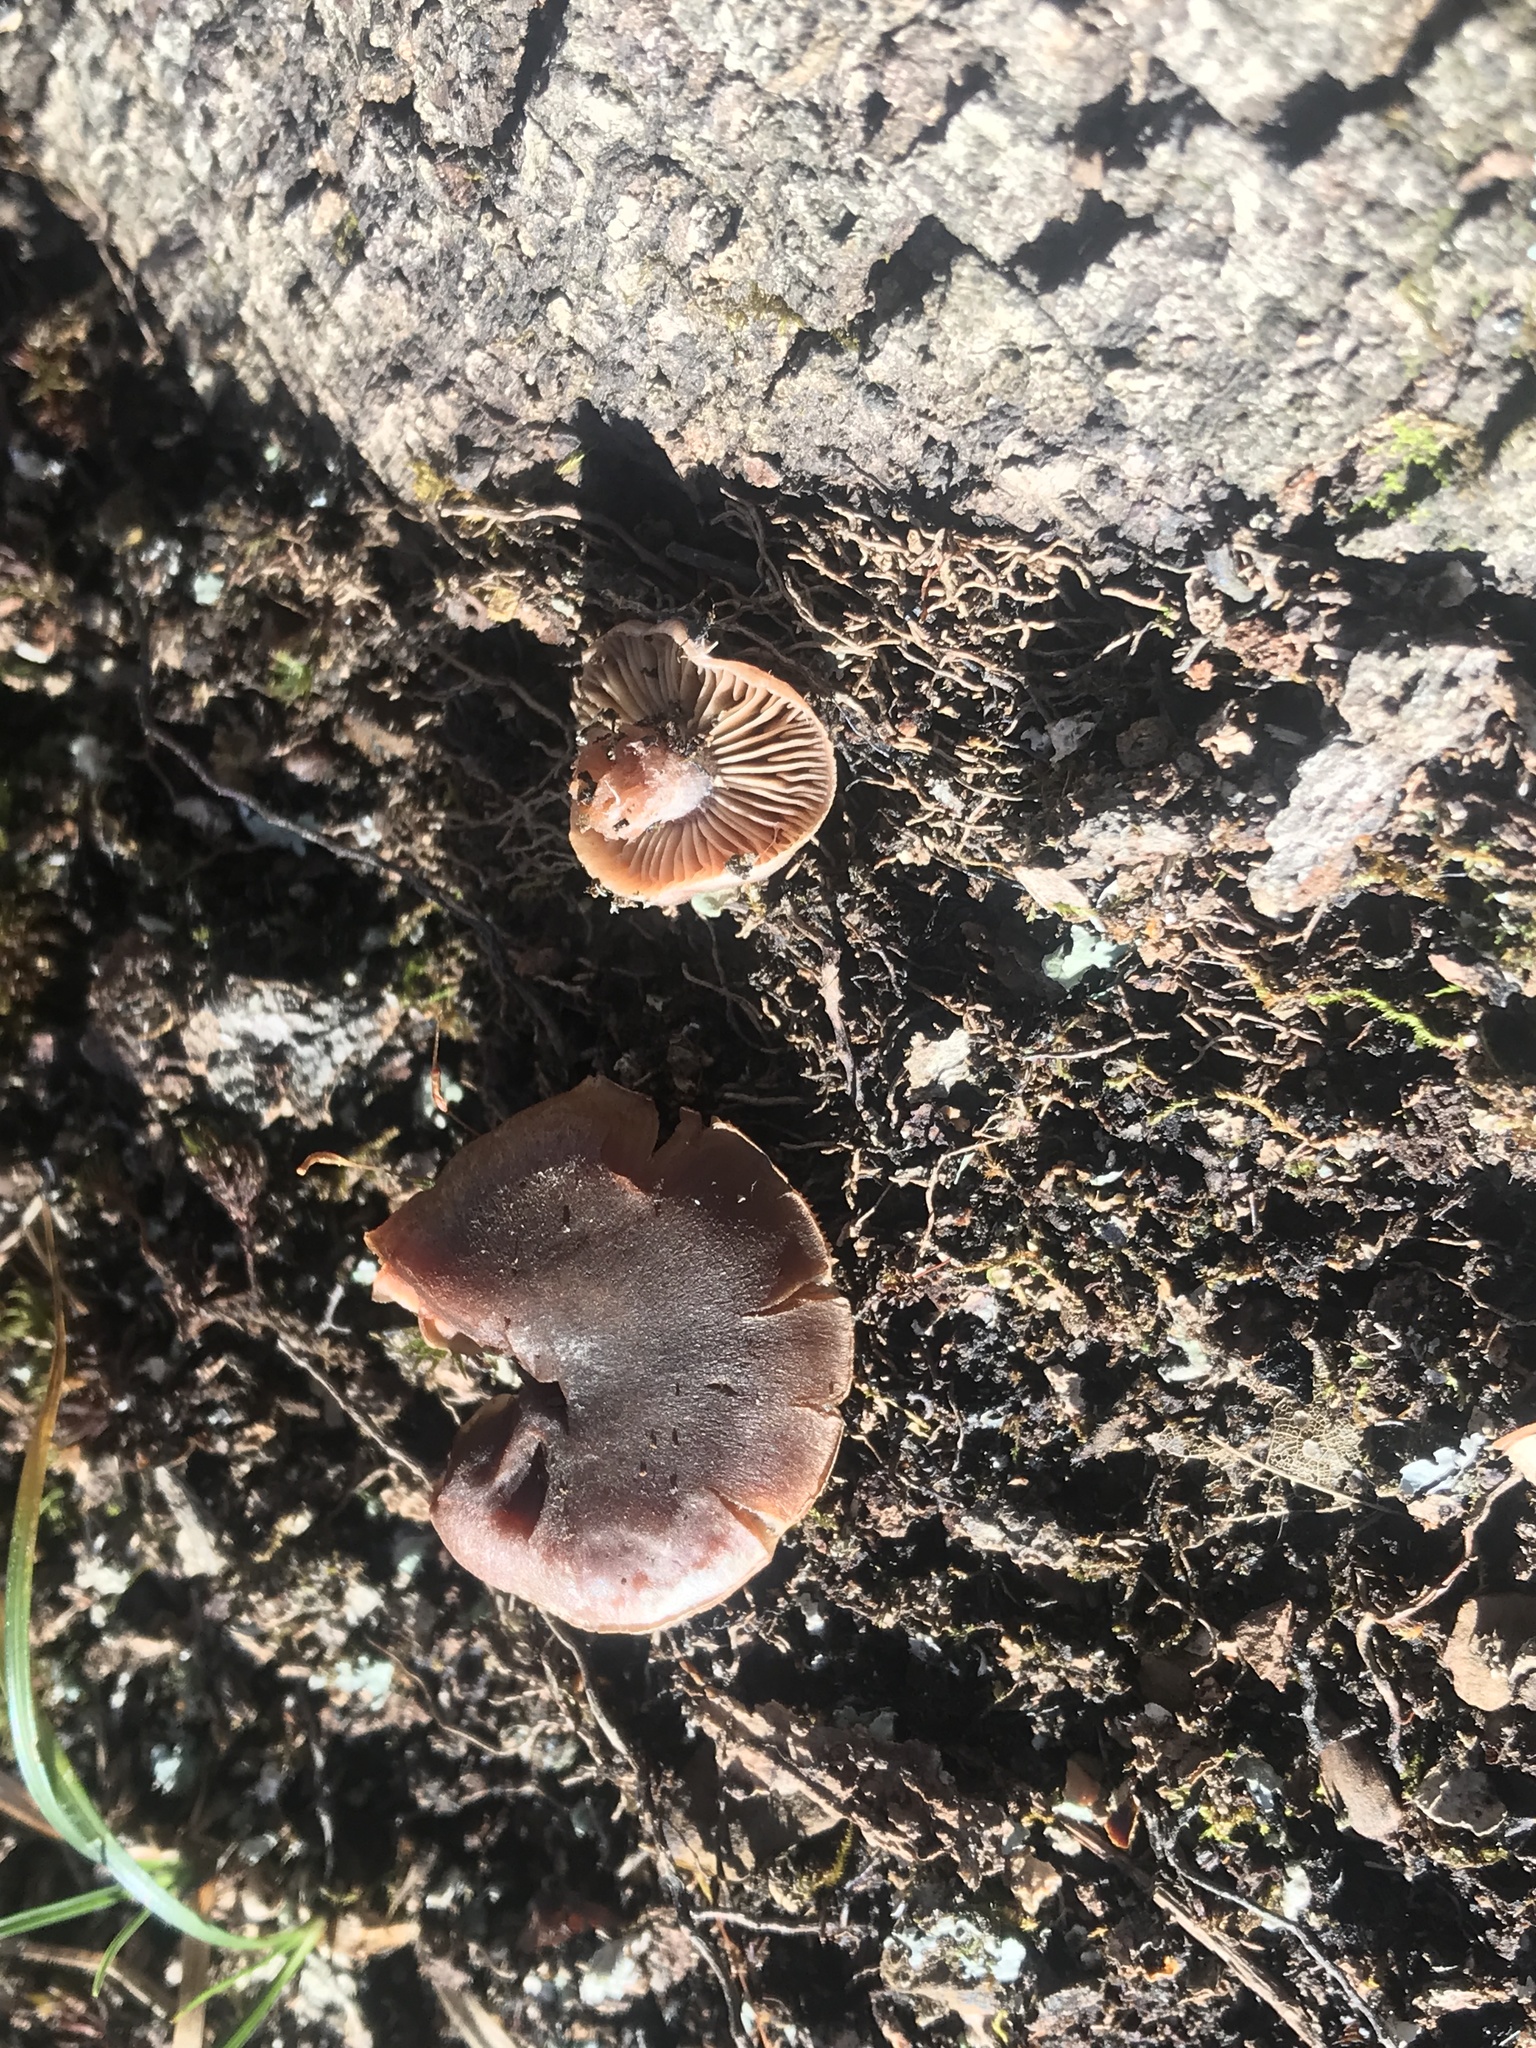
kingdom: Fungi
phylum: Basidiomycota
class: Agaricomycetes
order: Agaricales
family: Cortinariaceae
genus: Cortinarius
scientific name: Cortinarius subtabularis
